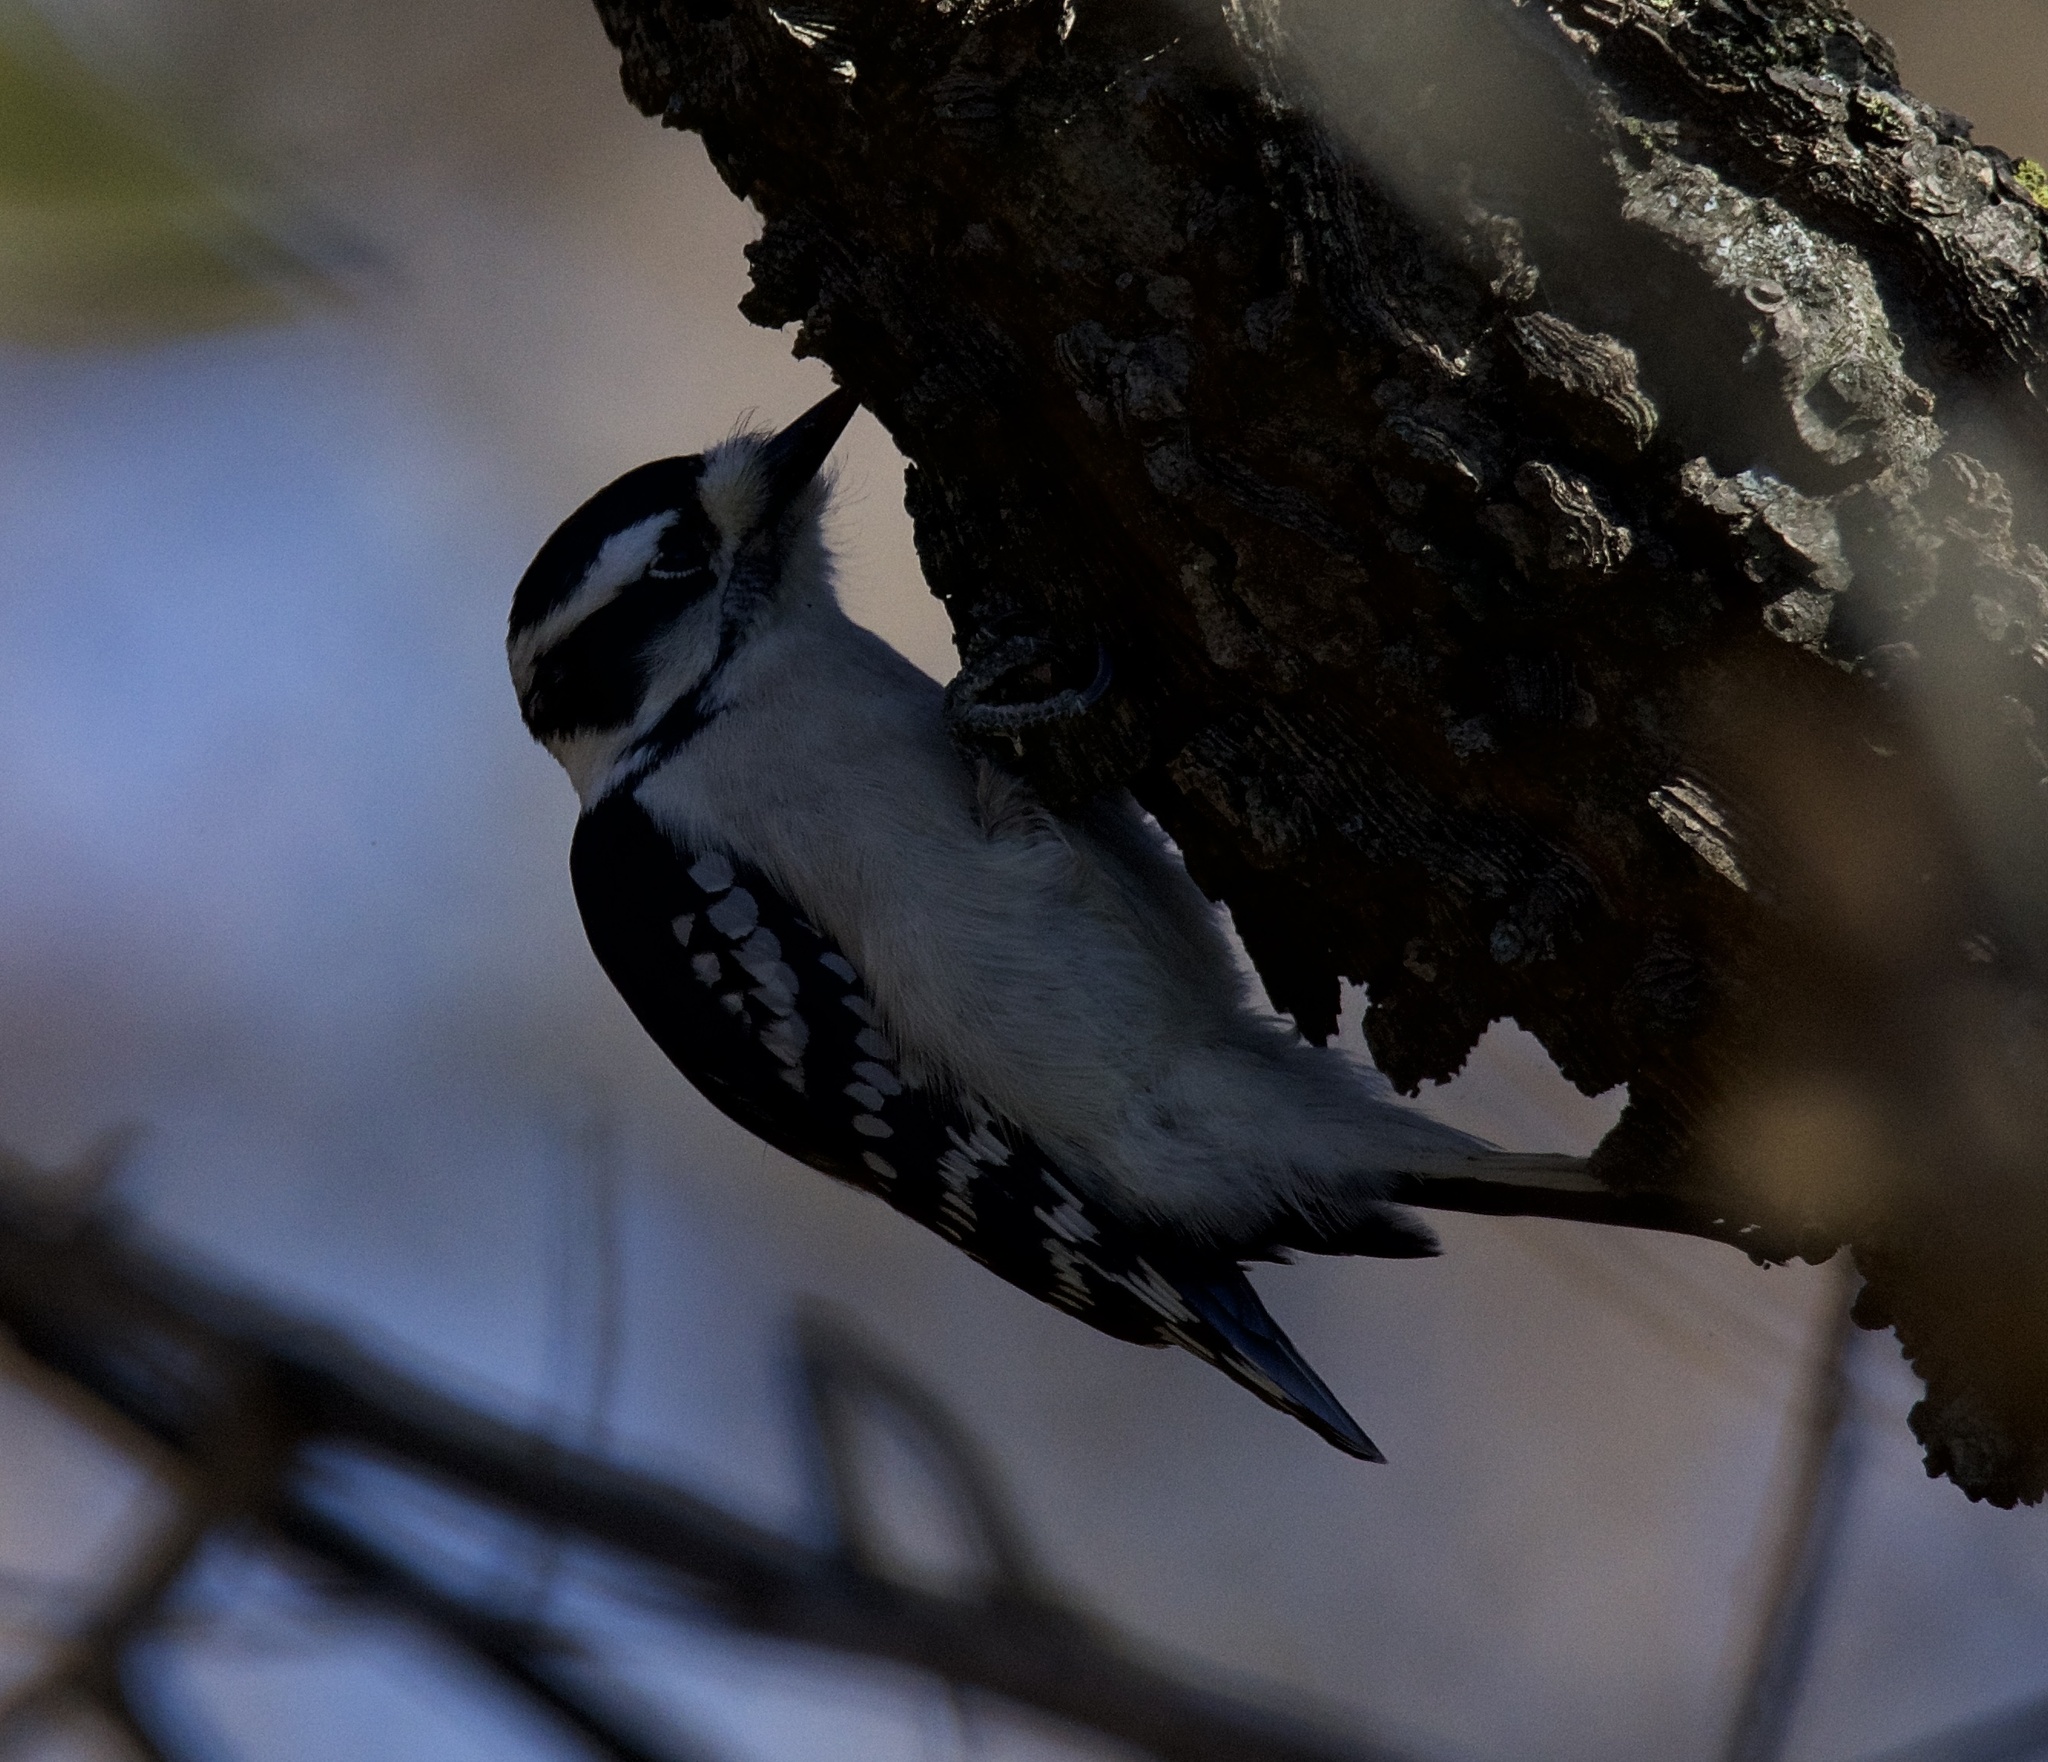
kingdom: Animalia
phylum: Chordata
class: Aves
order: Piciformes
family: Picidae
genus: Dryobates
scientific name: Dryobates pubescens
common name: Downy woodpecker
